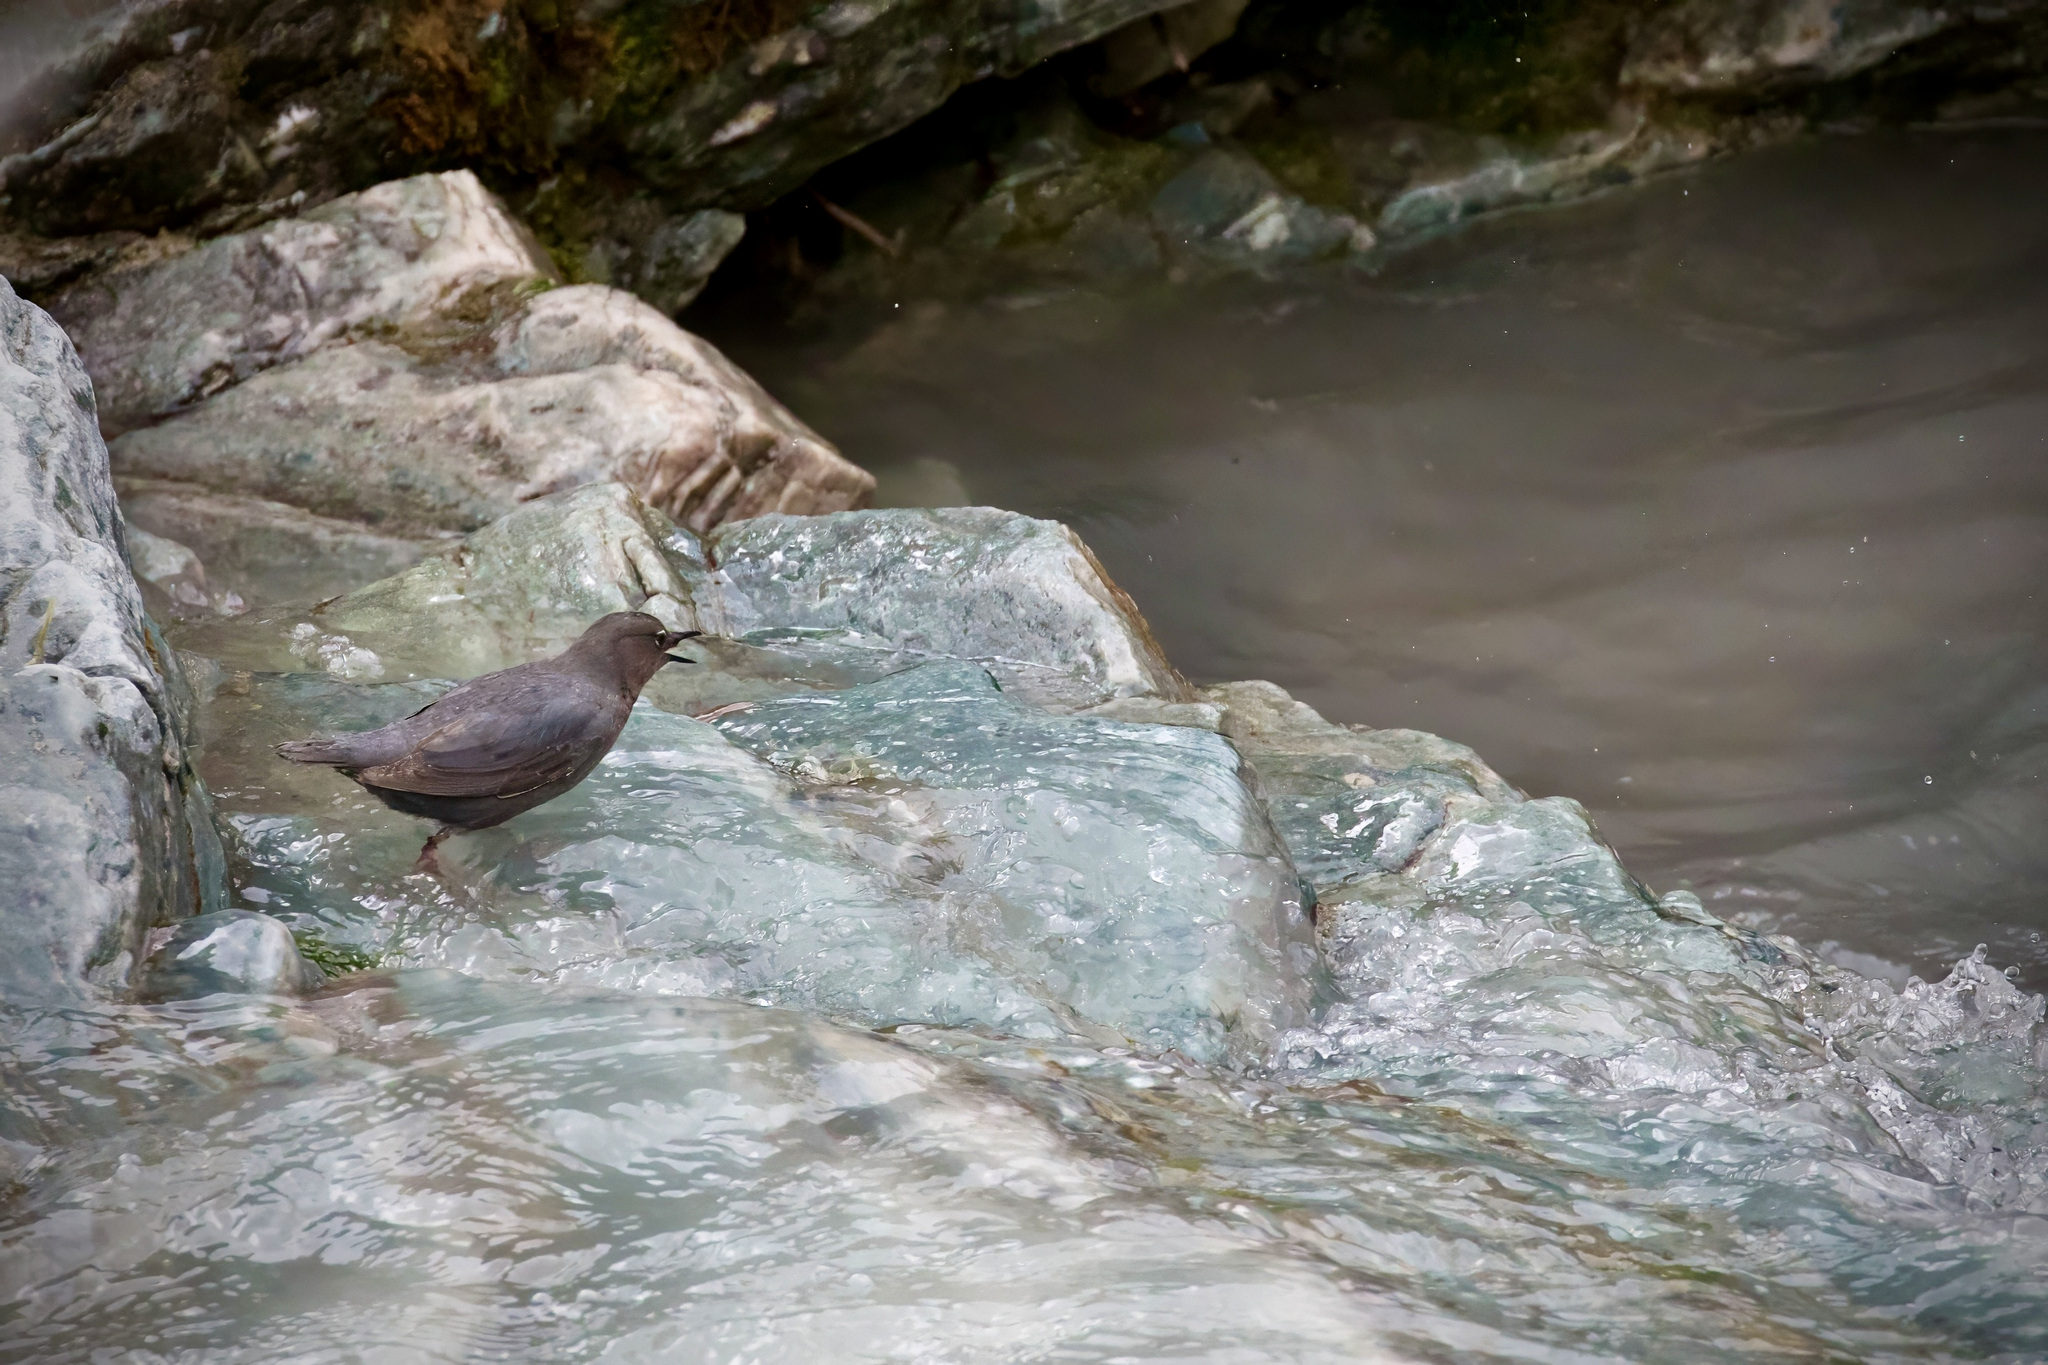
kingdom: Animalia
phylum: Chordata
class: Aves
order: Passeriformes
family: Cinclidae
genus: Cinclus
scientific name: Cinclus mexicanus
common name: American dipper
